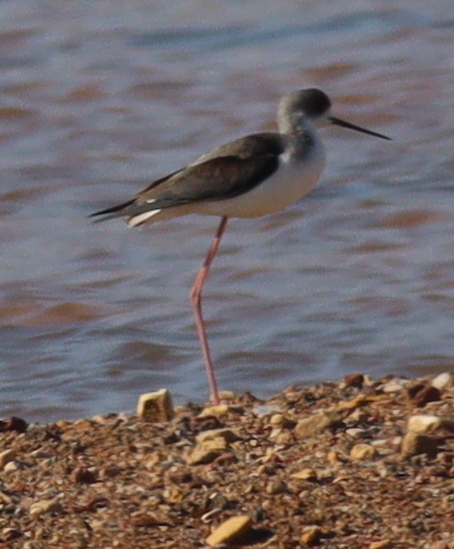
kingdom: Animalia
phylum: Chordata
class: Aves
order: Charadriiformes
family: Recurvirostridae
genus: Himantopus
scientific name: Himantopus himantopus
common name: Black-winged stilt
